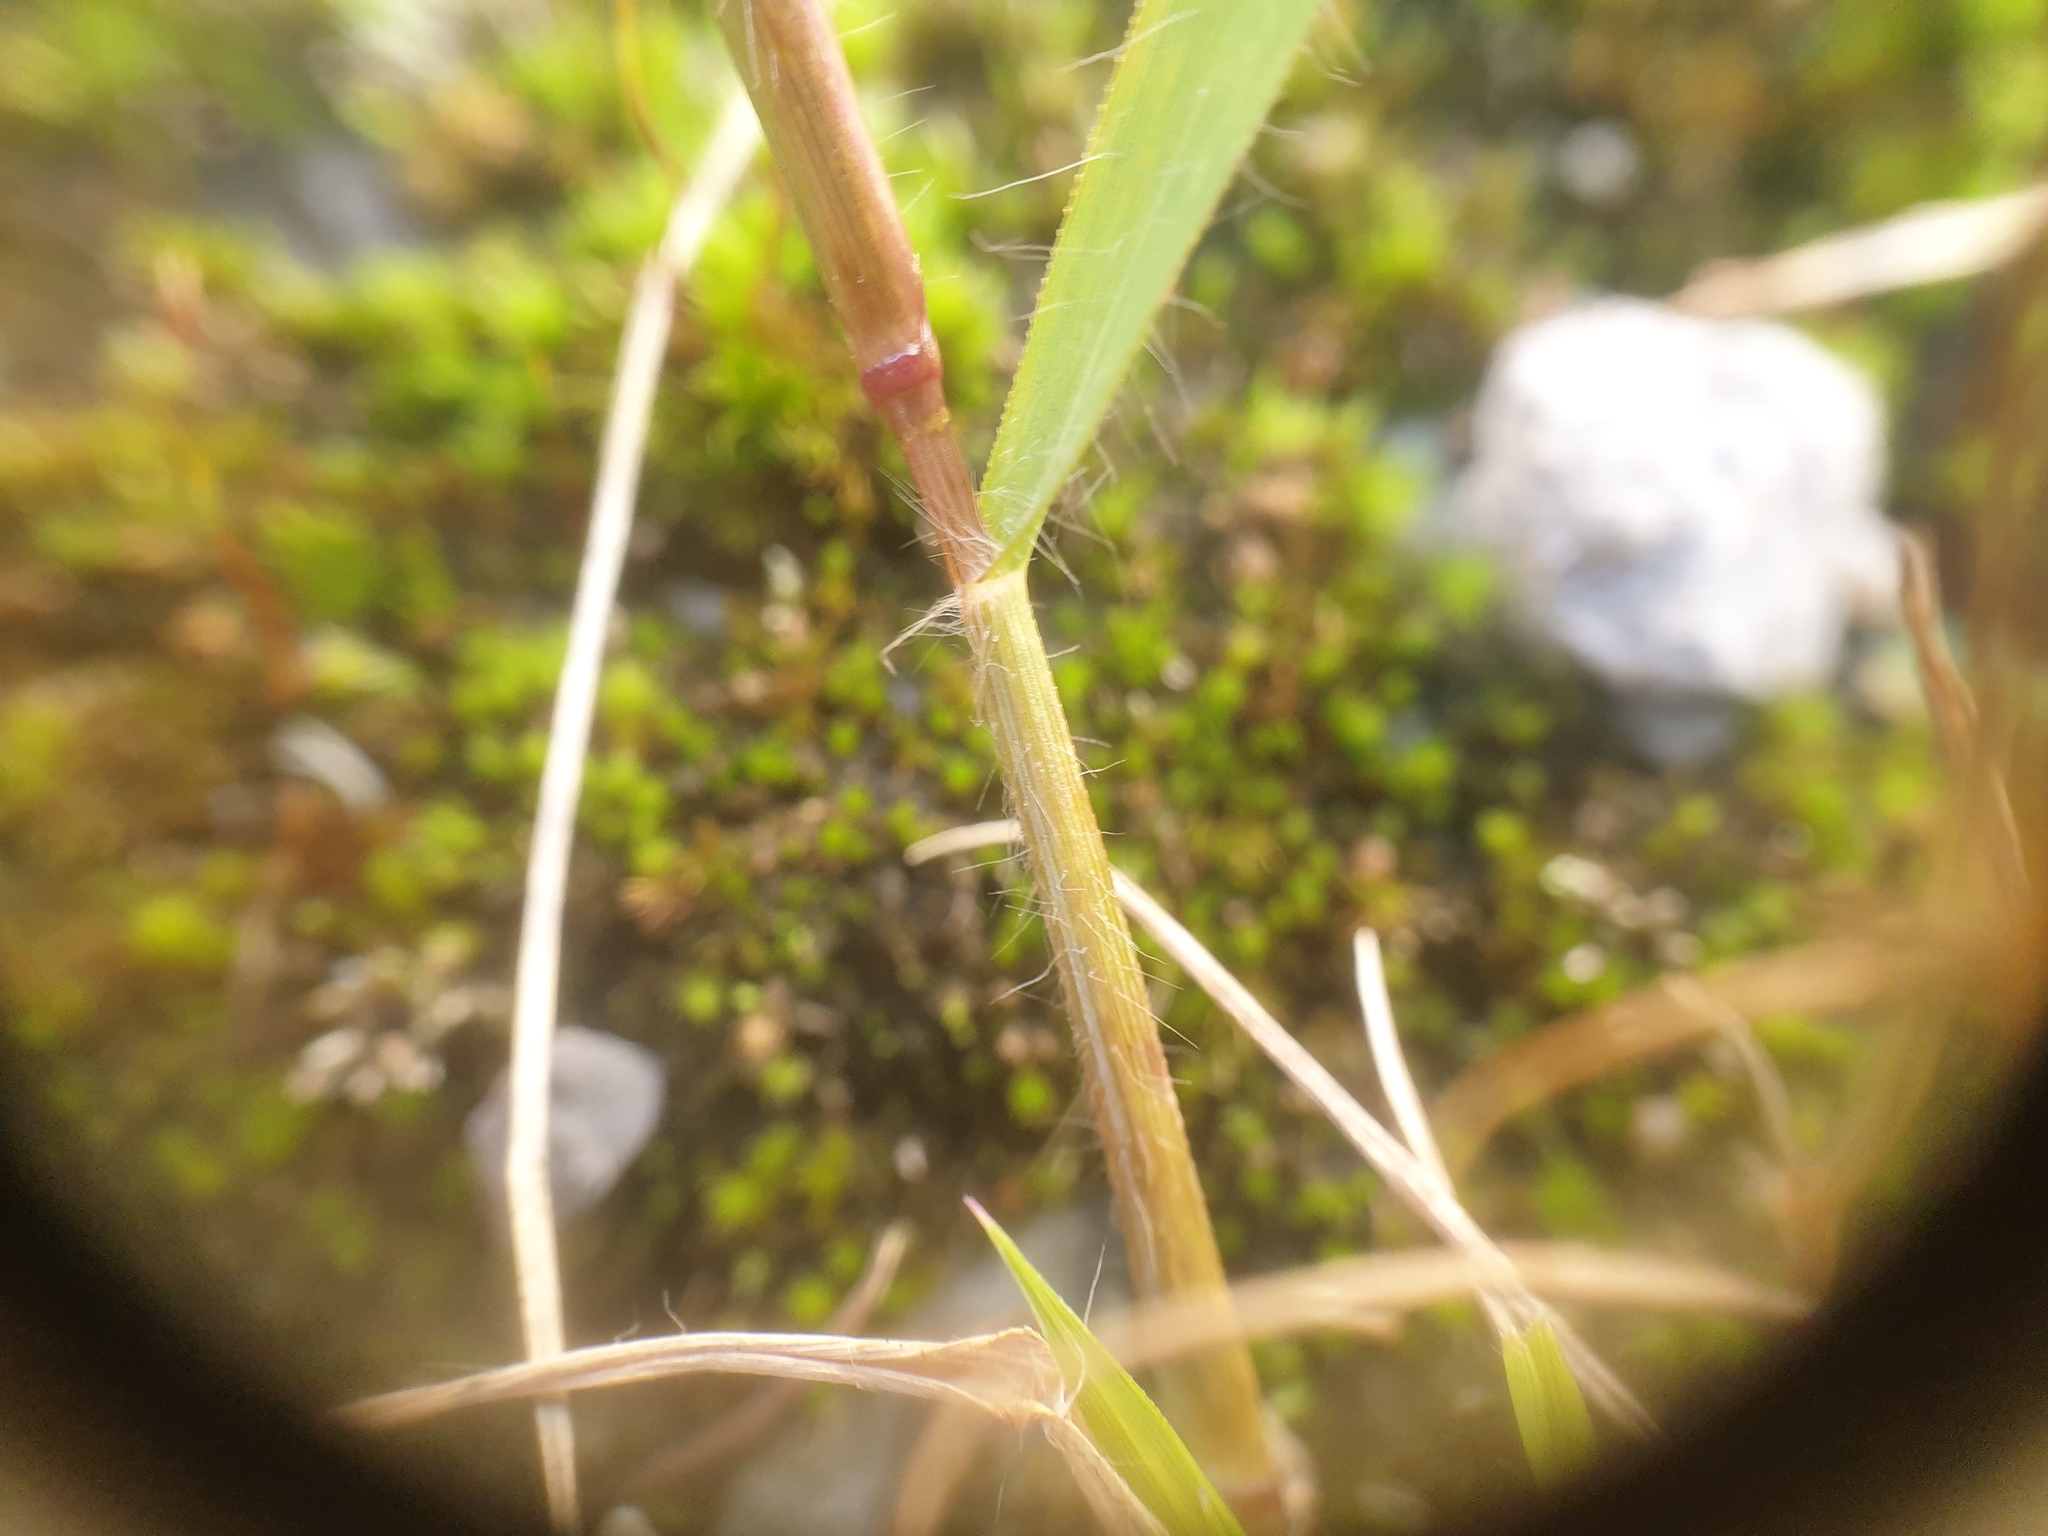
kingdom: Plantae
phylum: Tracheophyta
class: Liliopsida
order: Poales
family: Poaceae
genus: Eragrostis
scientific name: Eragrostis minor
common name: Small love-grass
